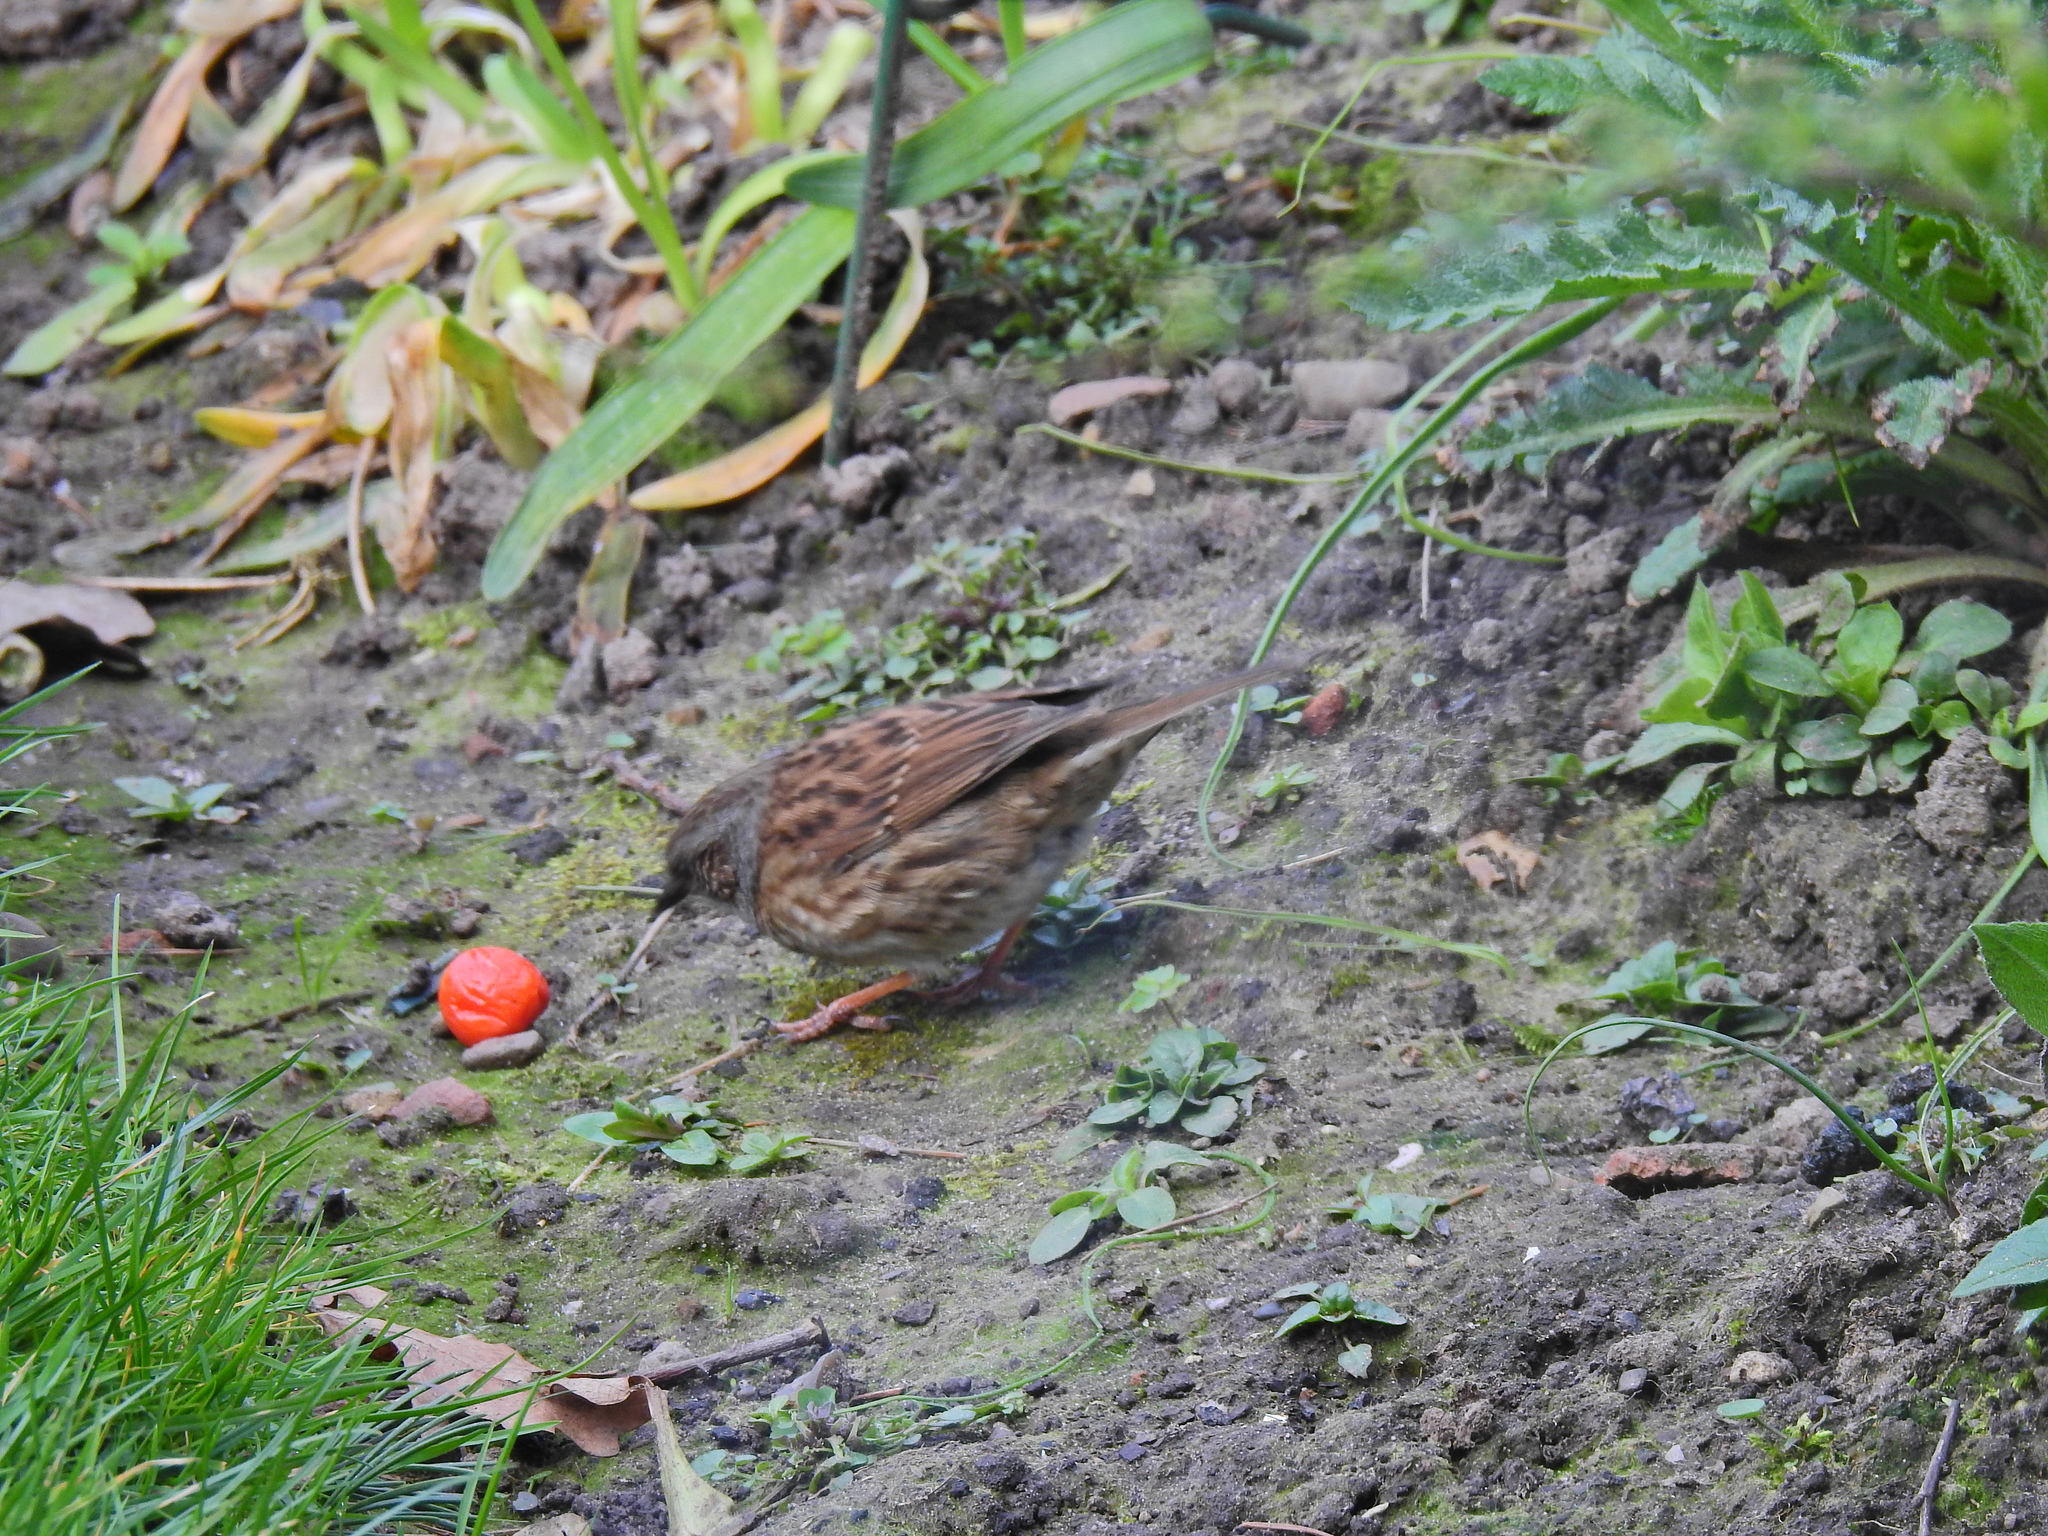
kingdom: Animalia
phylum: Chordata
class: Aves
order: Passeriformes
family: Prunellidae
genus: Prunella
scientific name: Prunella modularis
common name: Dunnock
